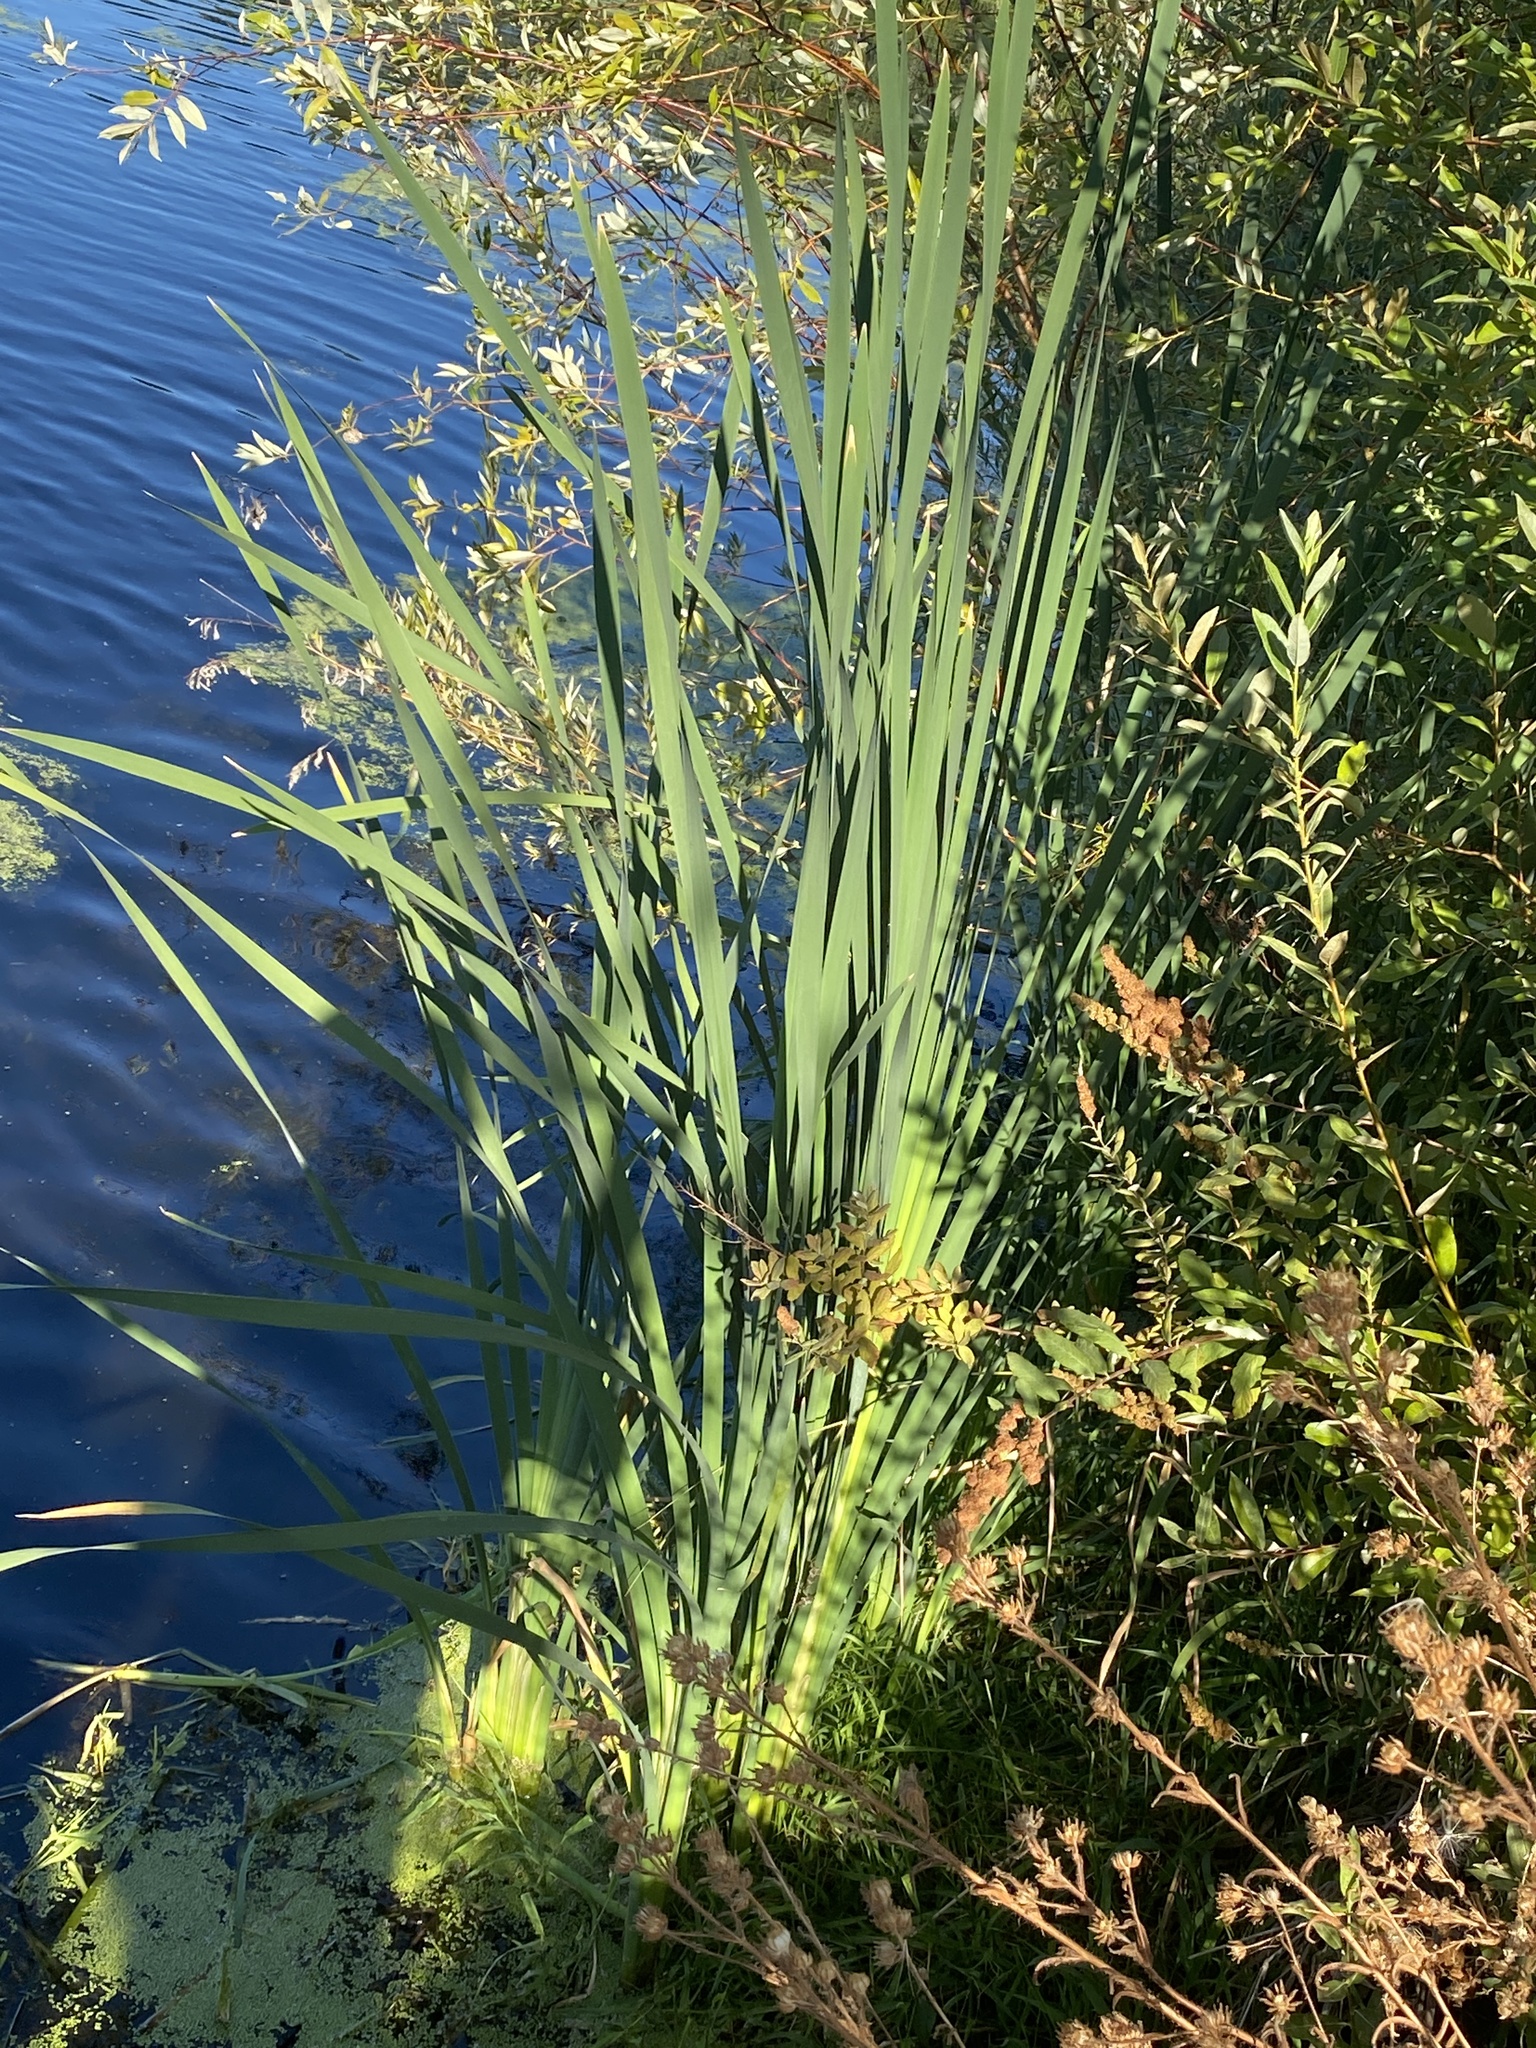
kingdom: Plantae
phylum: Tracheophyta
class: Liliopsida
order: Poales
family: Typhaceae
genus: Typha
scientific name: Typha latifolia
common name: Broadleaf cattail
